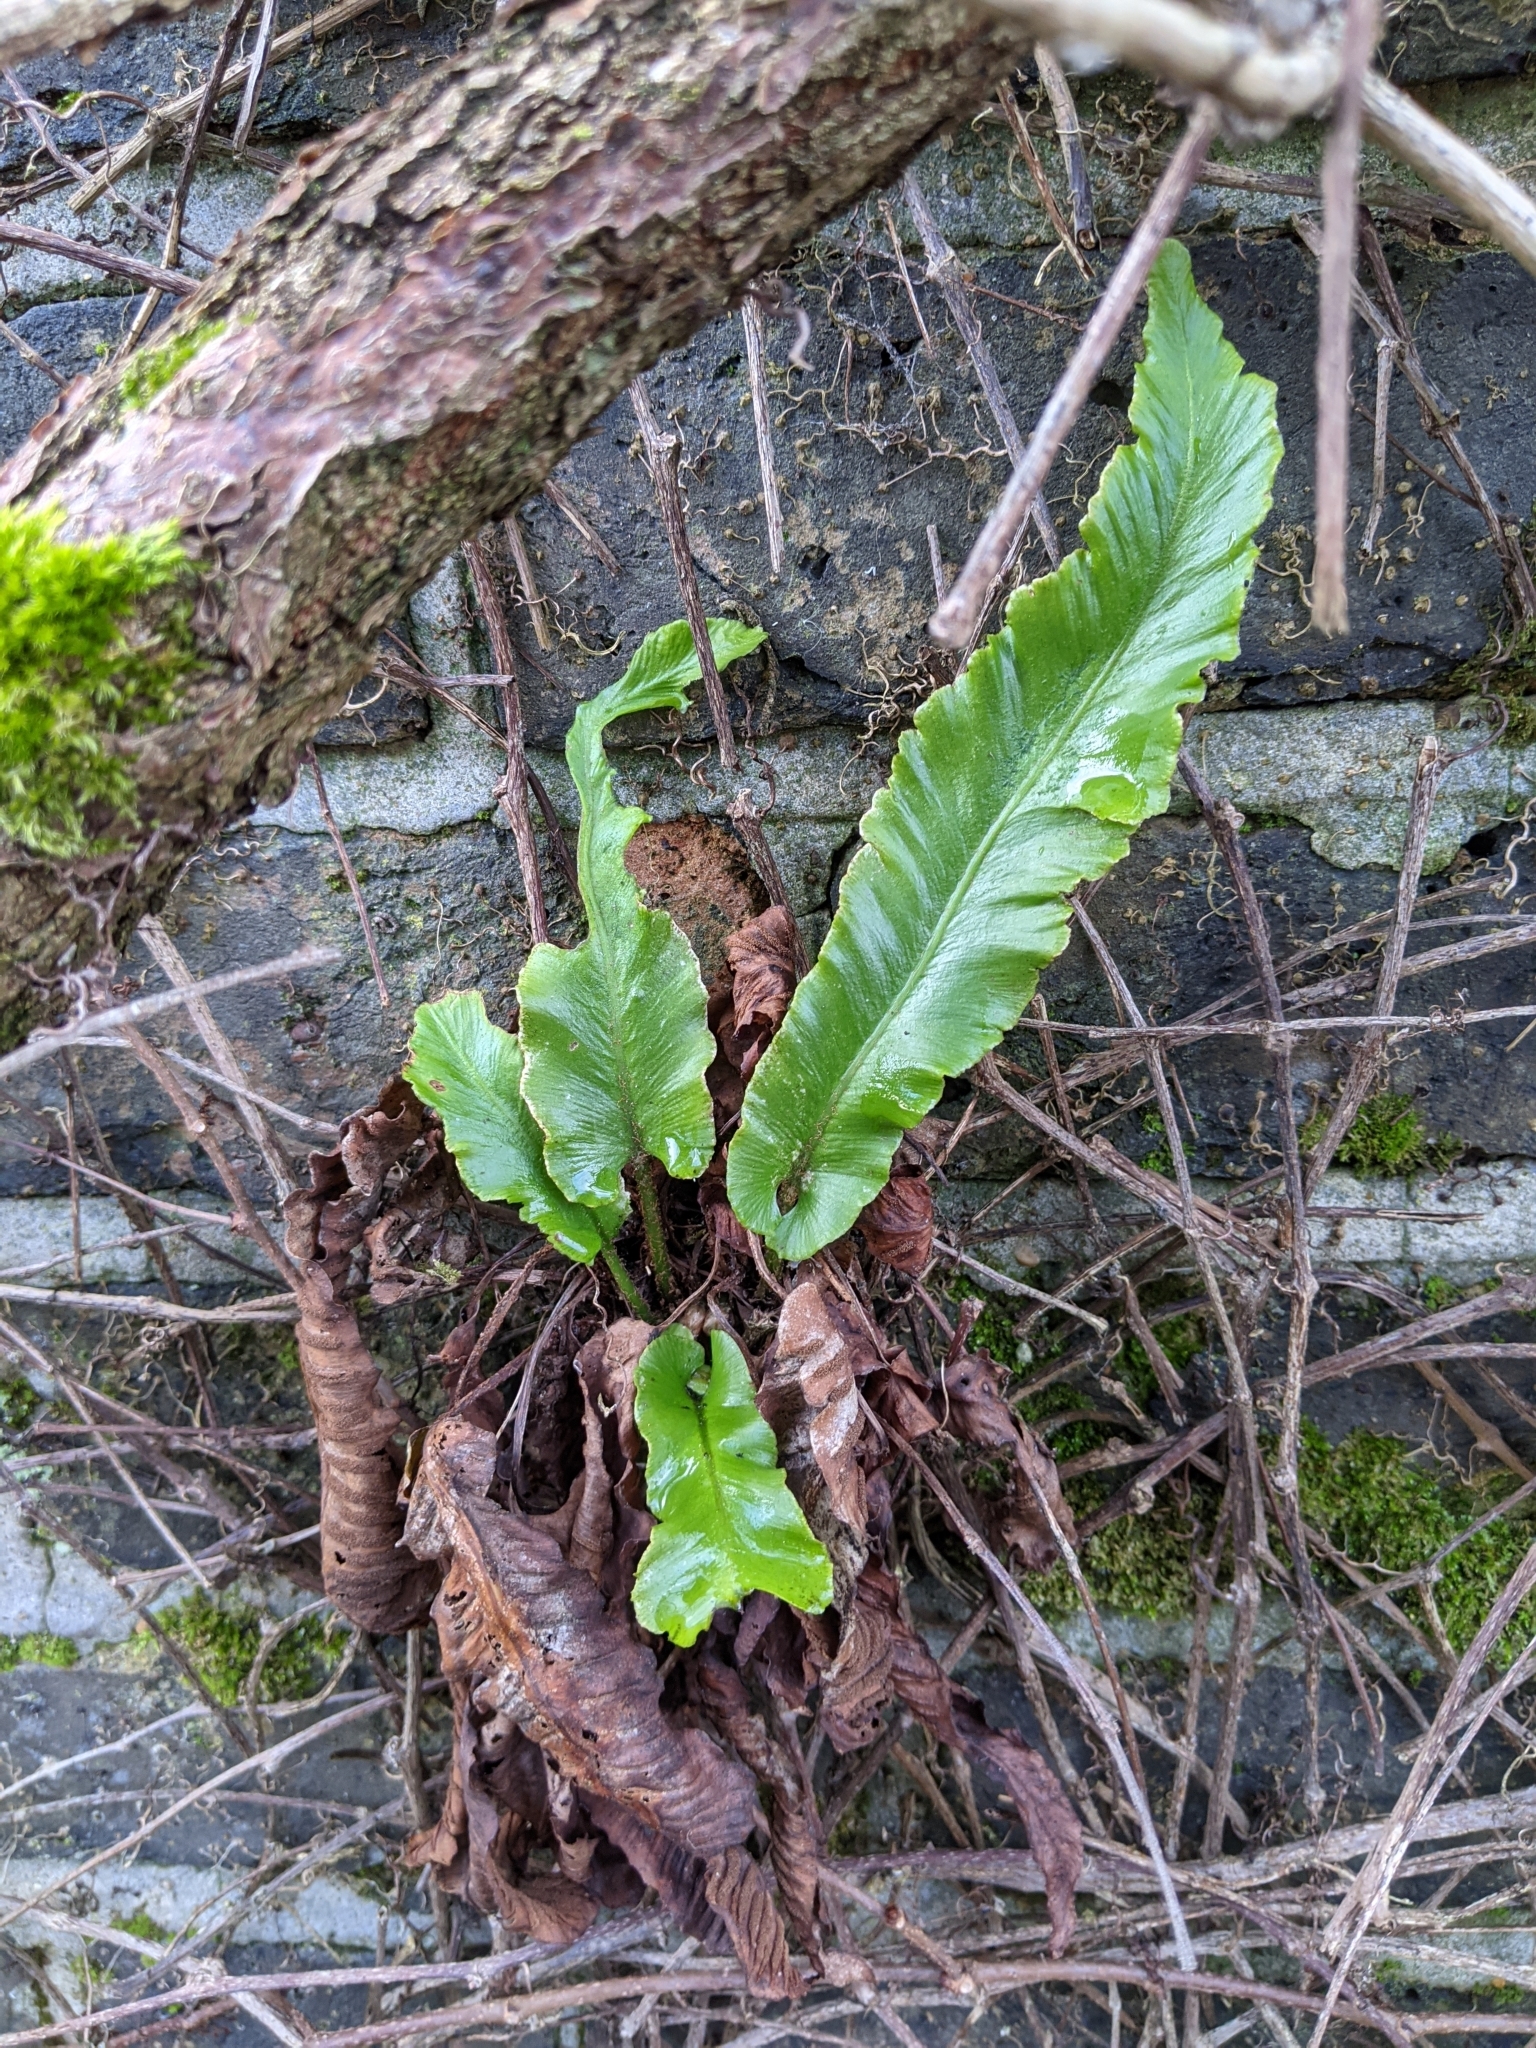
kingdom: Plantae
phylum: Tracheophyta
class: Polypodiopsida
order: Polypodiales
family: Aspleniaceae
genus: Asplenium
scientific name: Asplenium scolopendrium
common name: Hart's-tongue fern
